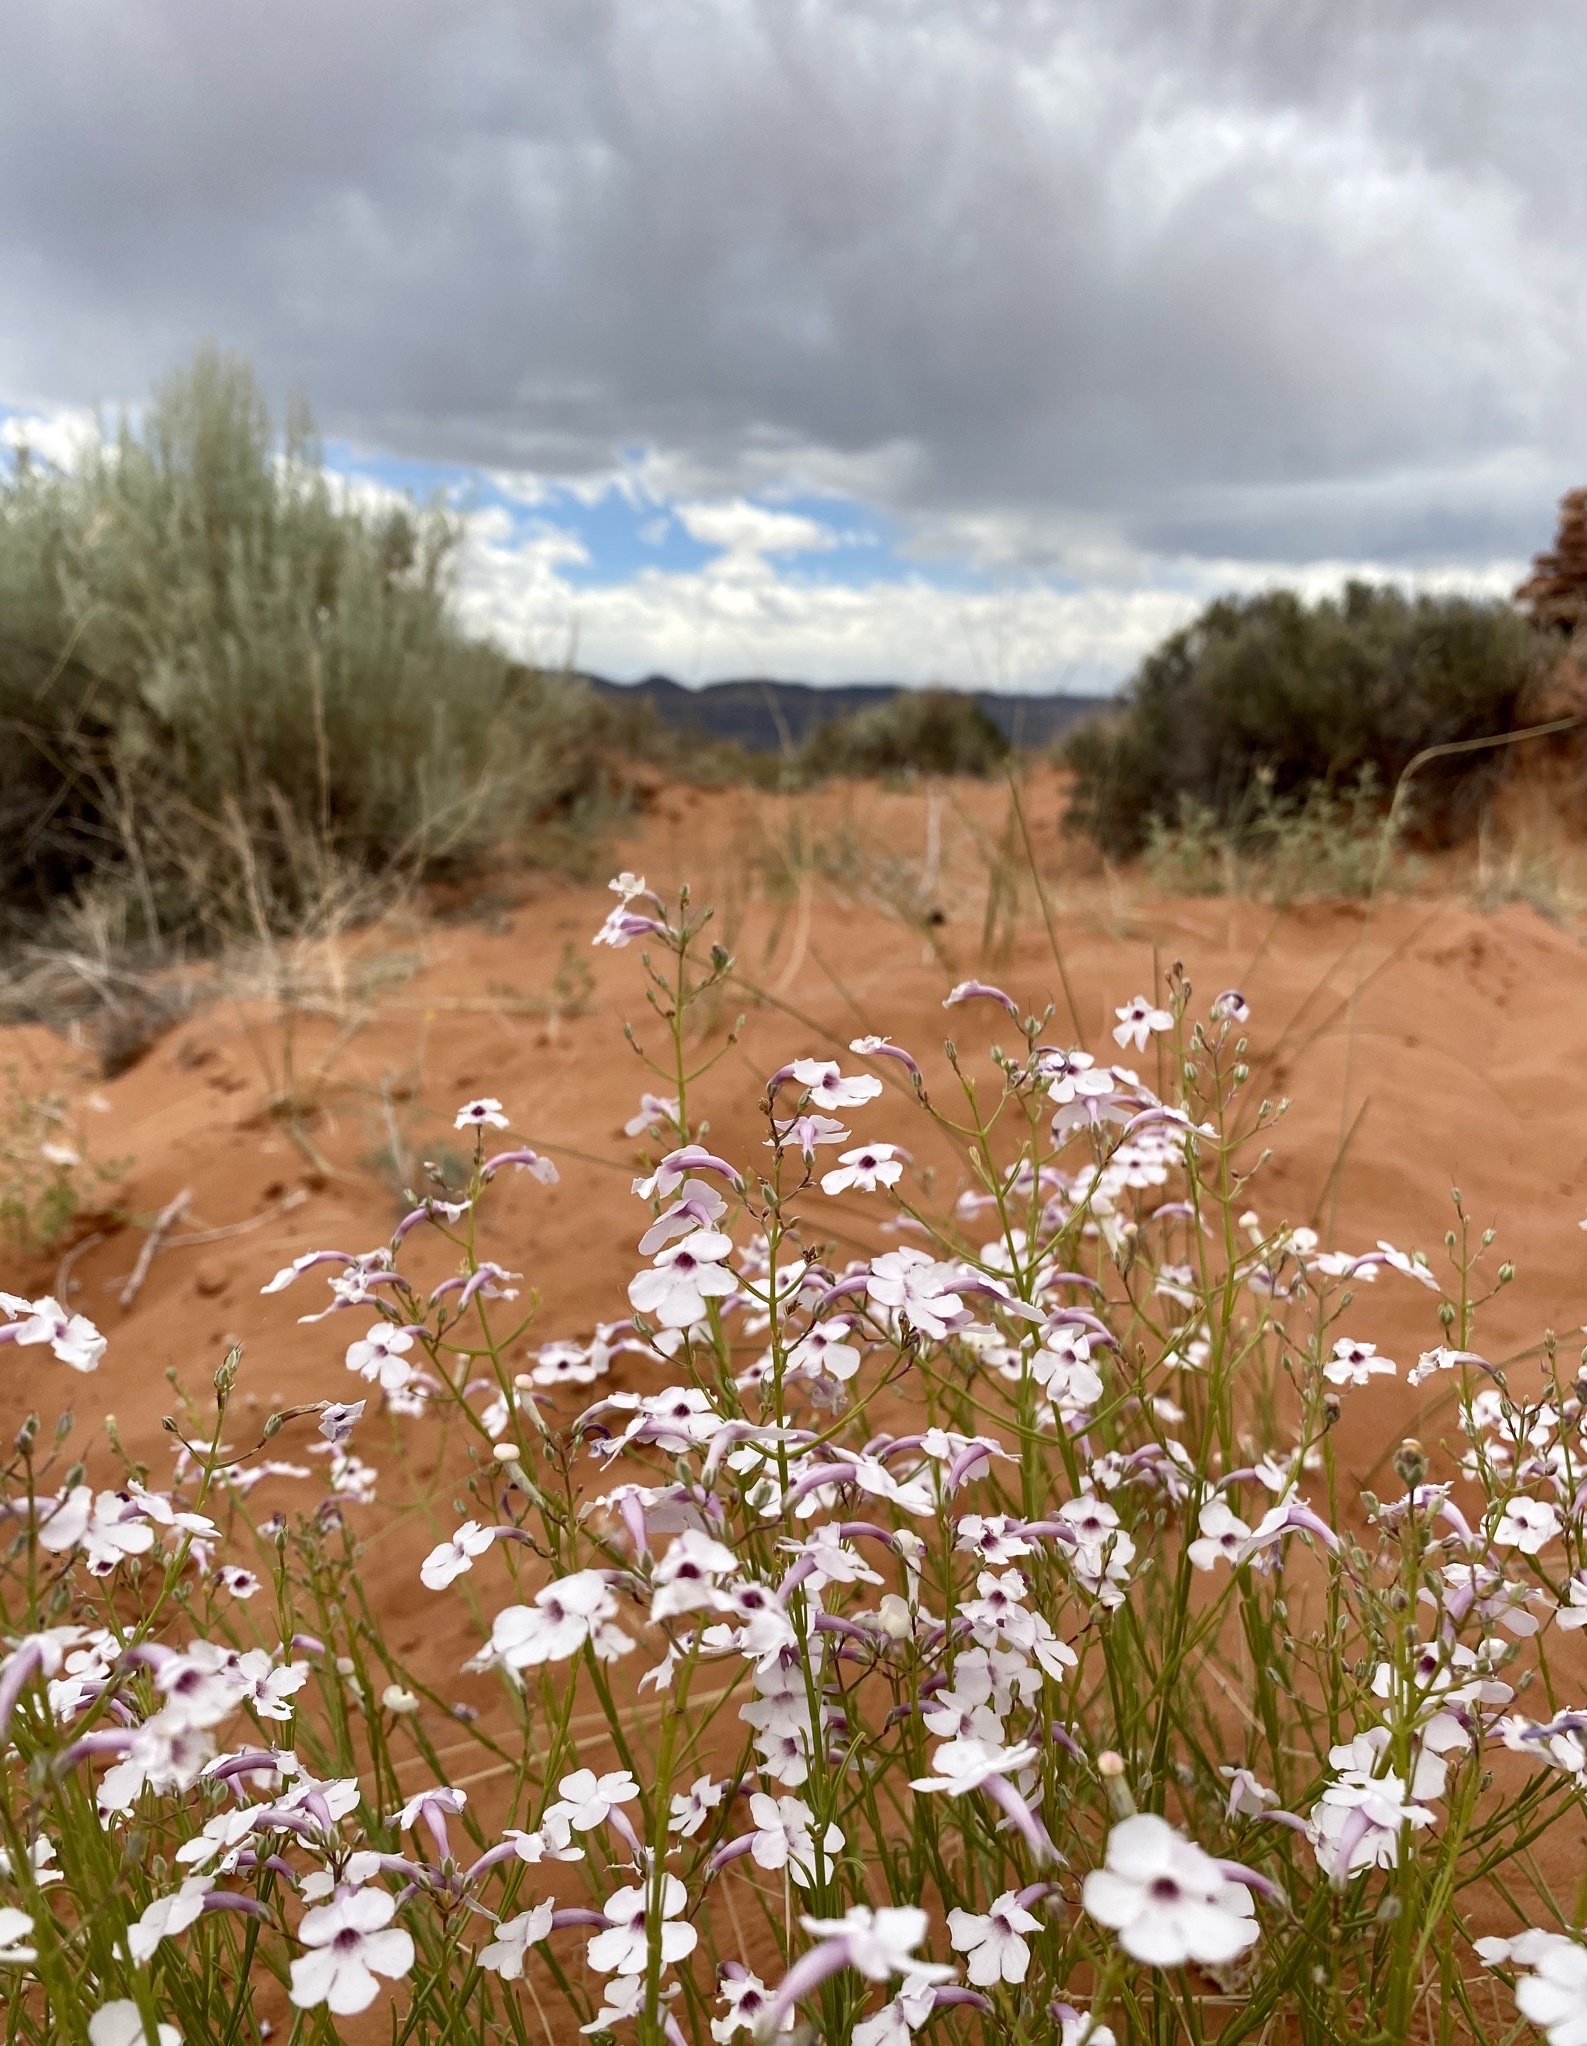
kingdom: Plantae
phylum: Tracheophyta
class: Magnoliopsida
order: Lamiales
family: Plantaginaceae
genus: Penstemon
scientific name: Penstemon ambiguus
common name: Bush penstemon
